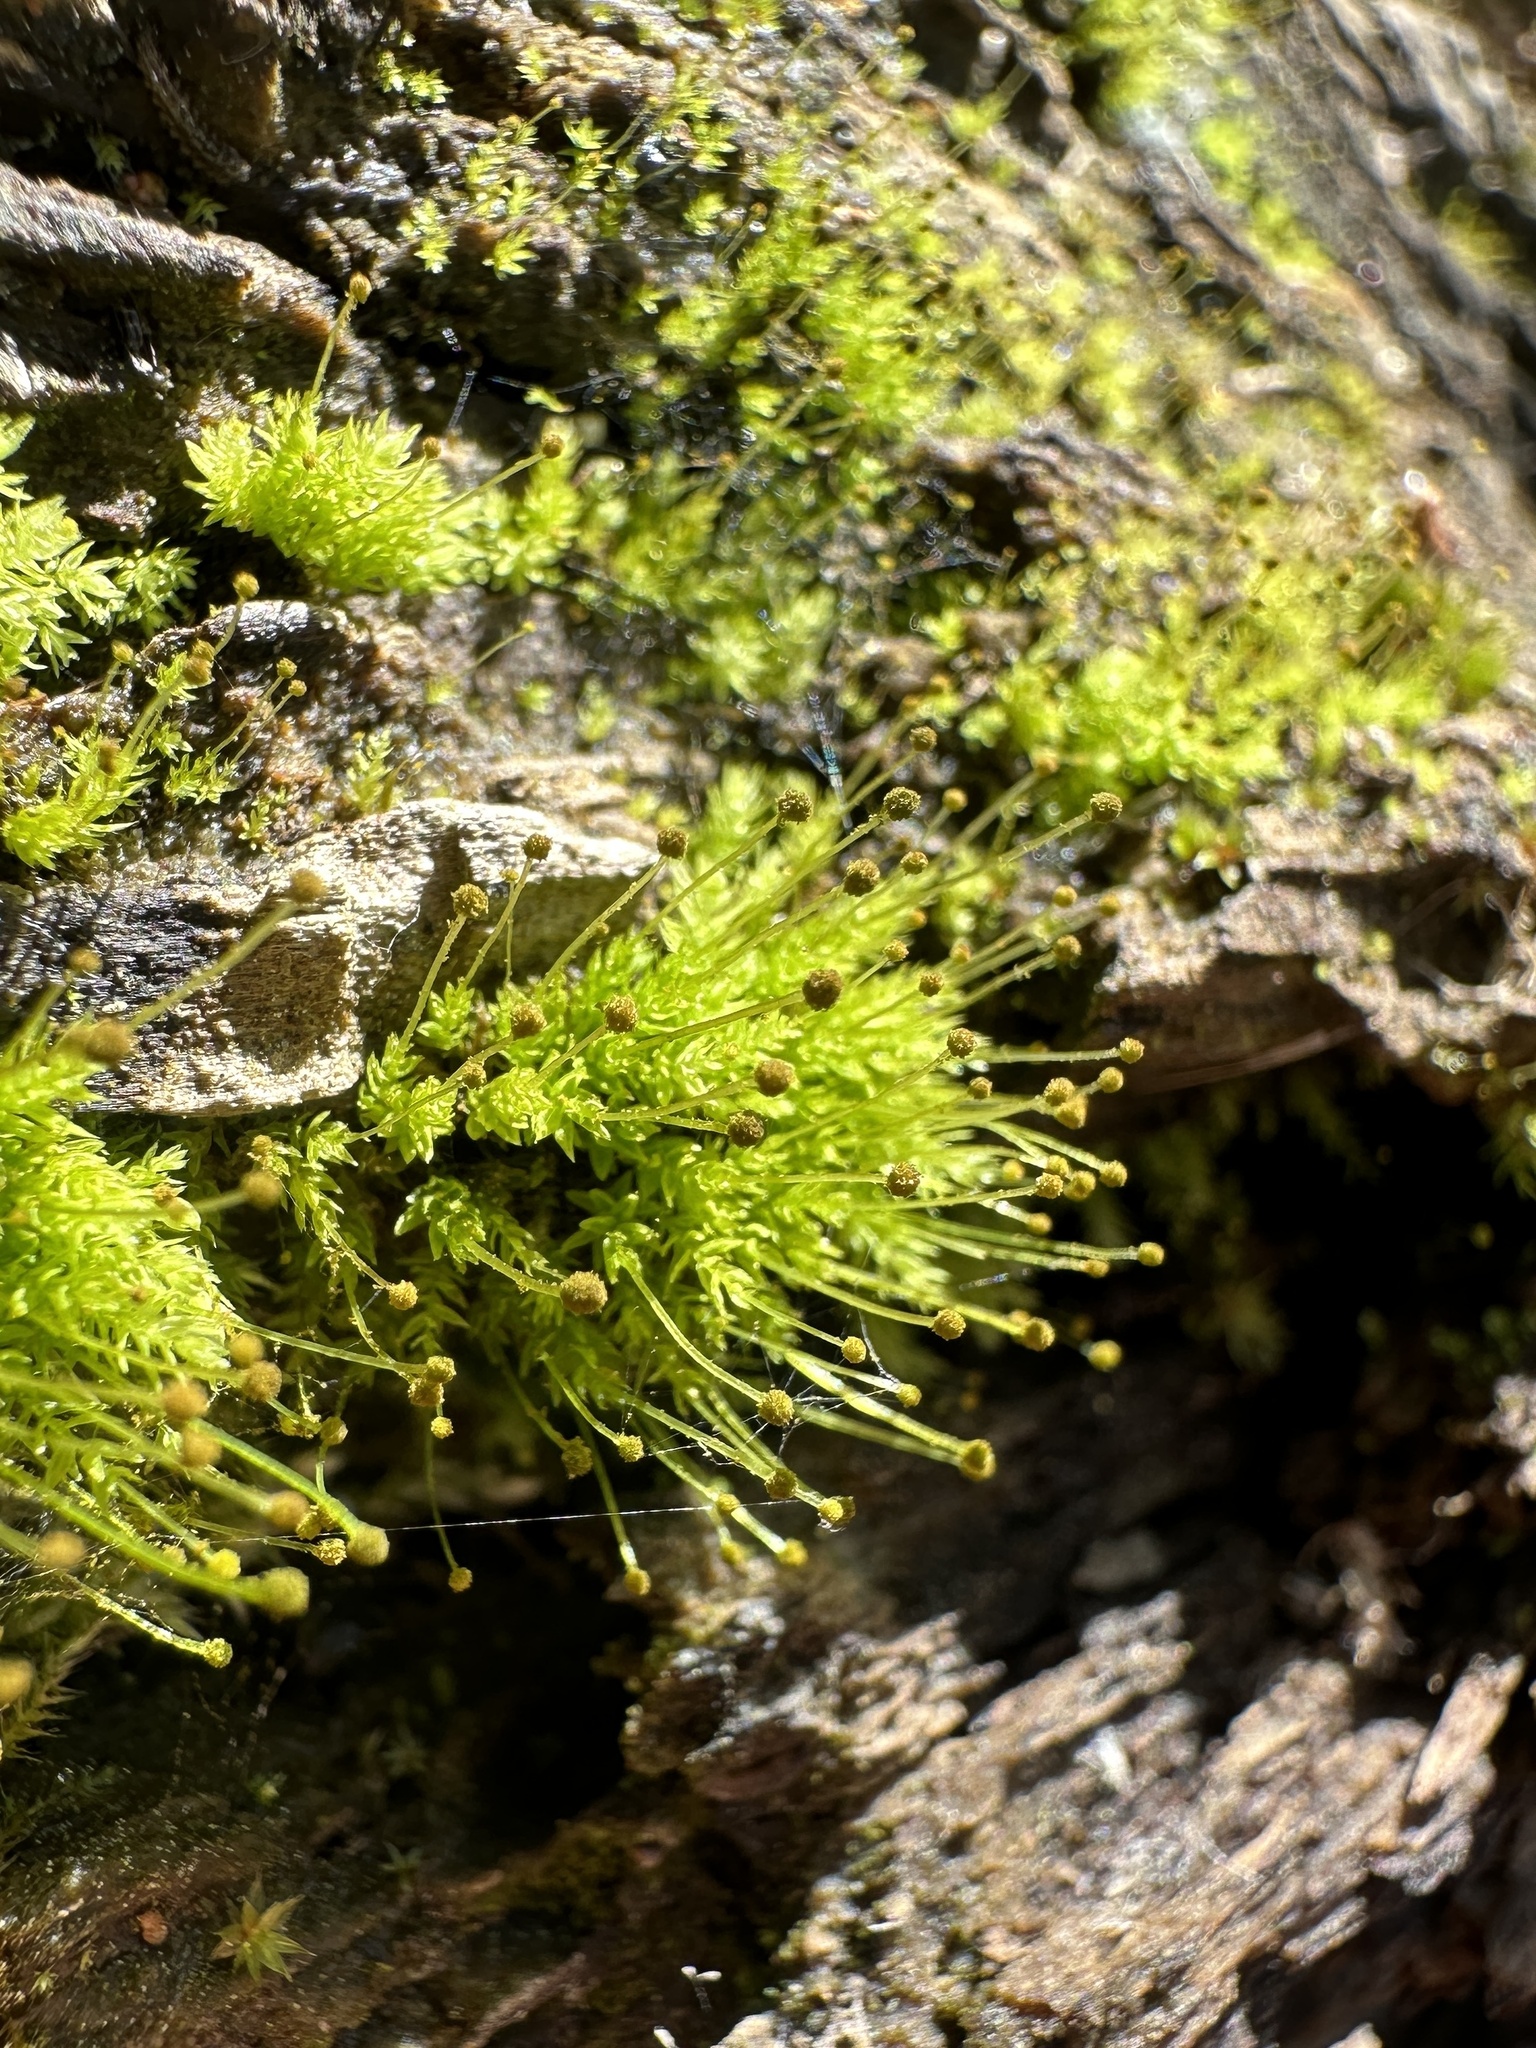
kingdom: Plantae
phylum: Bryophyta
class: Bryopsida
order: Aulacomniales
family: Aulacomniaceae
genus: Aulacomnium
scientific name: Aulacomnium androgynum
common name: Little groove moss
